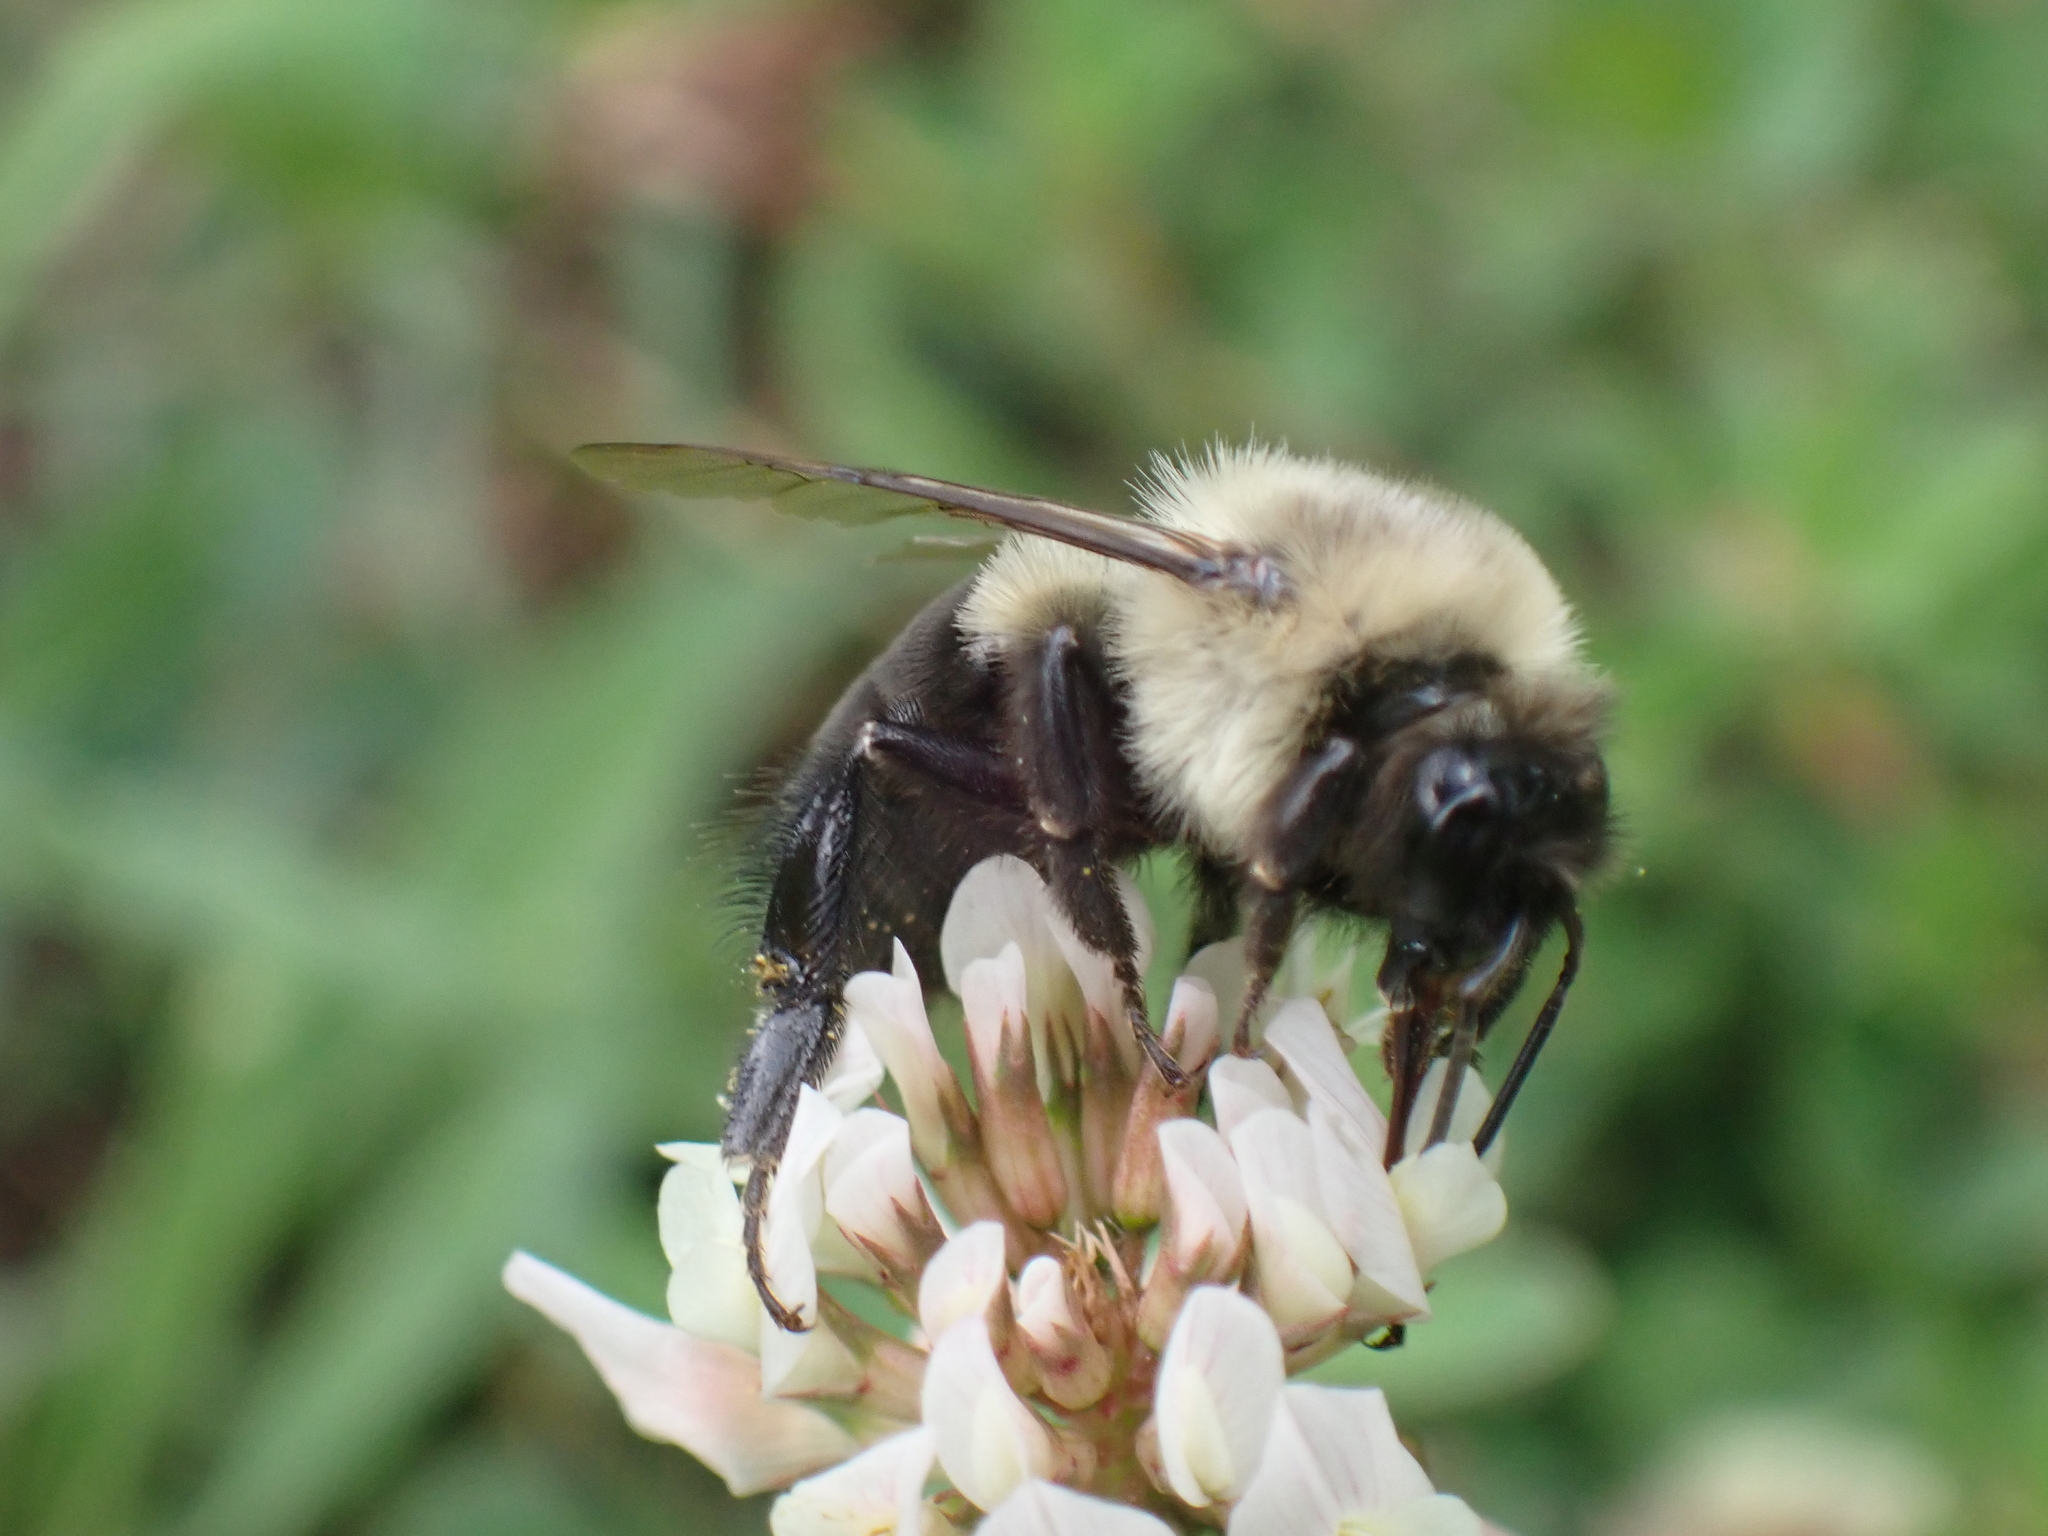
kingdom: Animalia
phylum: Arthropoda
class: Insecta
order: Hymenoptera
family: Apidae
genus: Bombus
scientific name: Bombus impatiens
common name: Common eastern bumble bee
